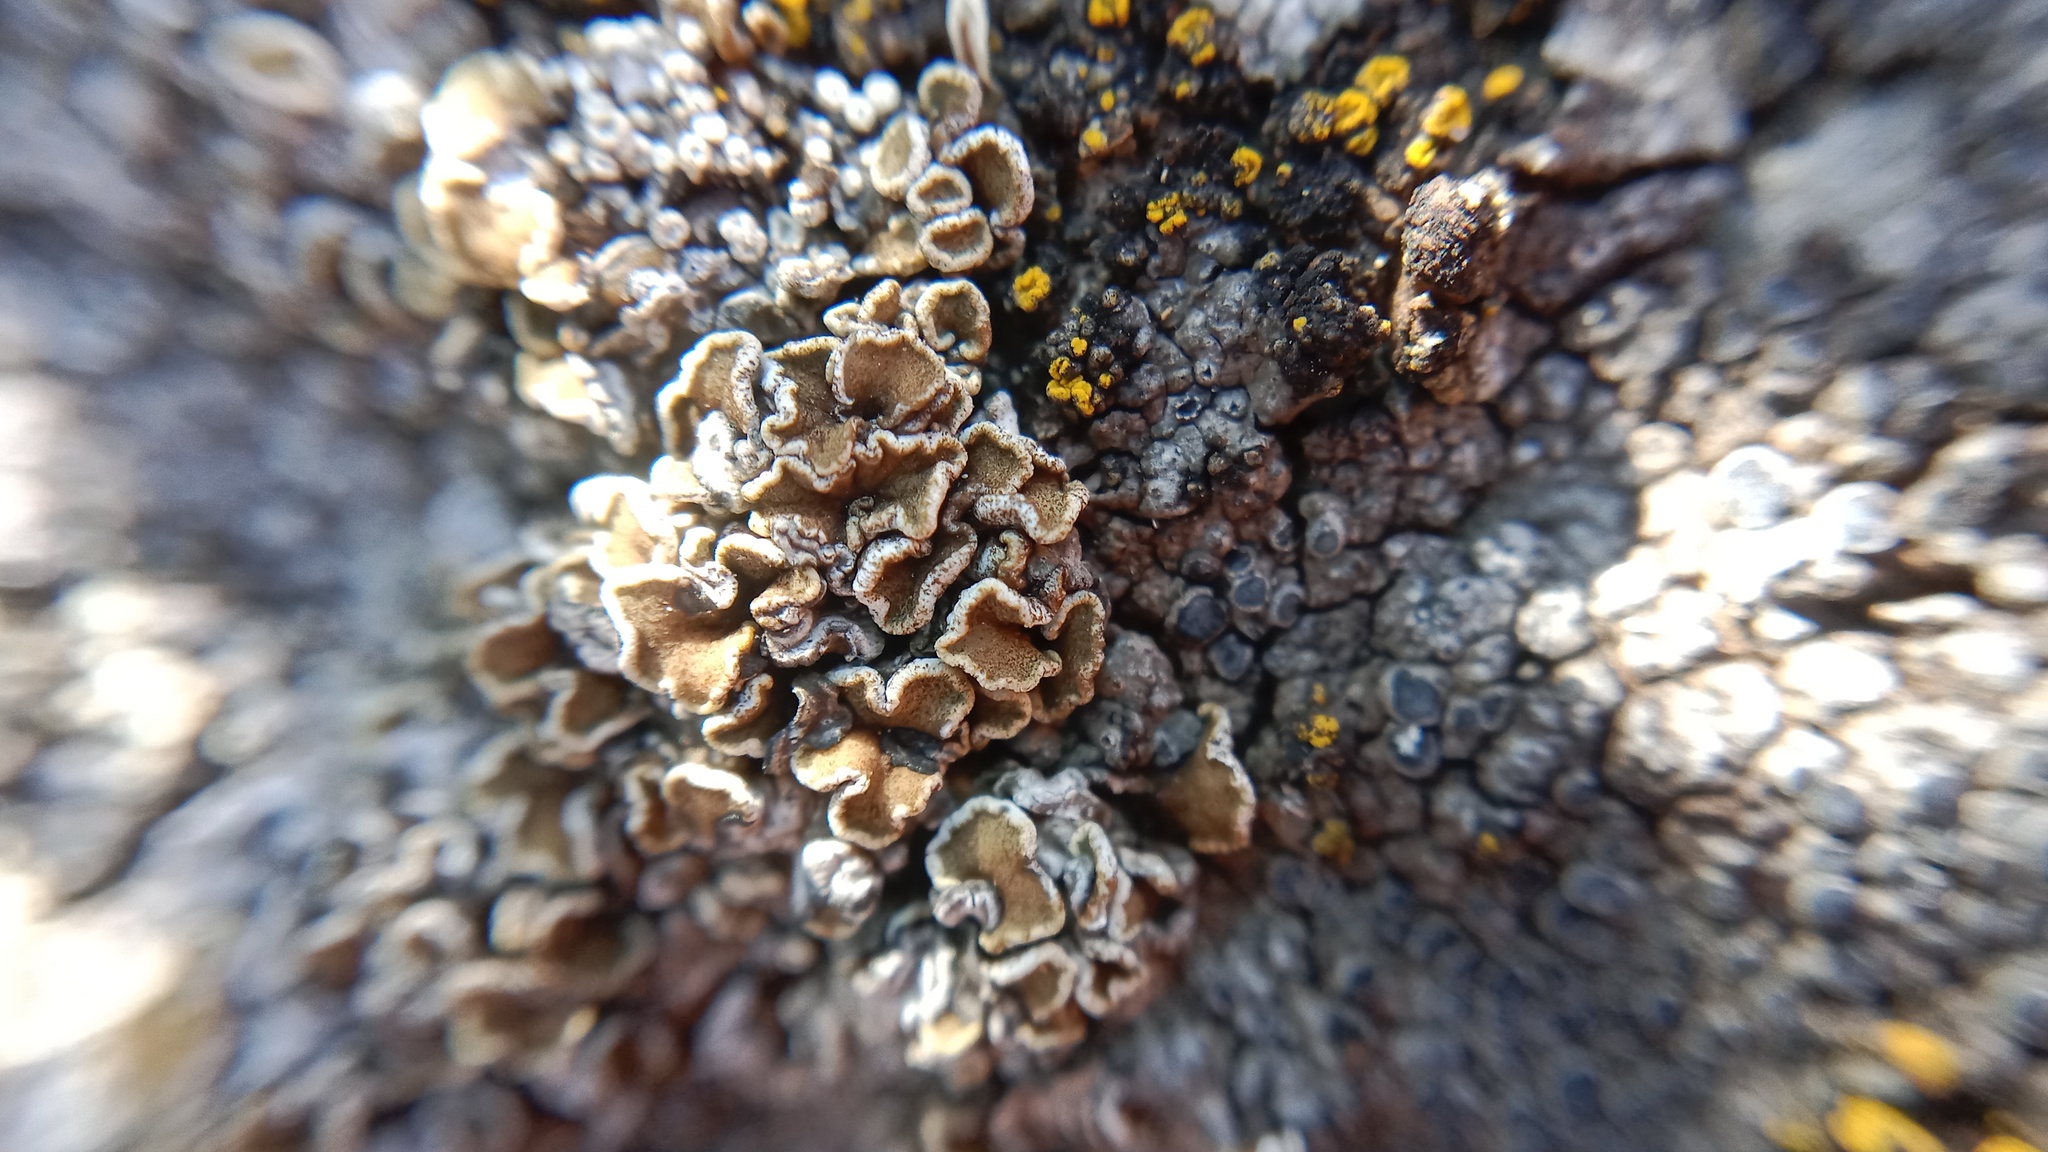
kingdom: Fungi
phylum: Ascomycota
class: Lecanoromycetes
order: Lecanorales
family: Lecanoraceae
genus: Polyozosia
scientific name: Polyozosia semipallida
